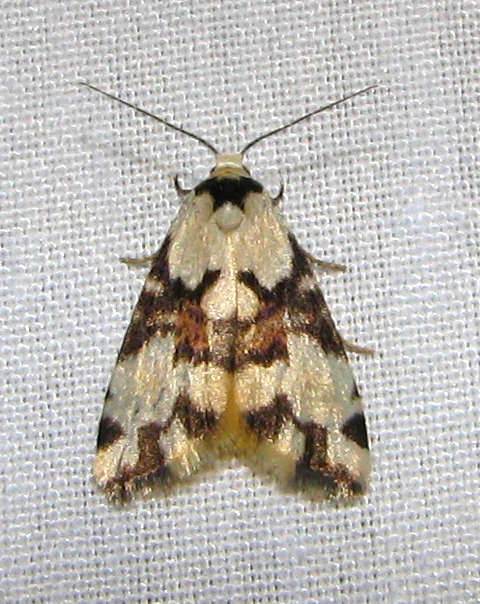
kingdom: Animalia
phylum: Arthropoda
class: Insecta
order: Lepidoptera
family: Erebidae
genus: Thallarcha
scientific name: Thallarcha oblita
